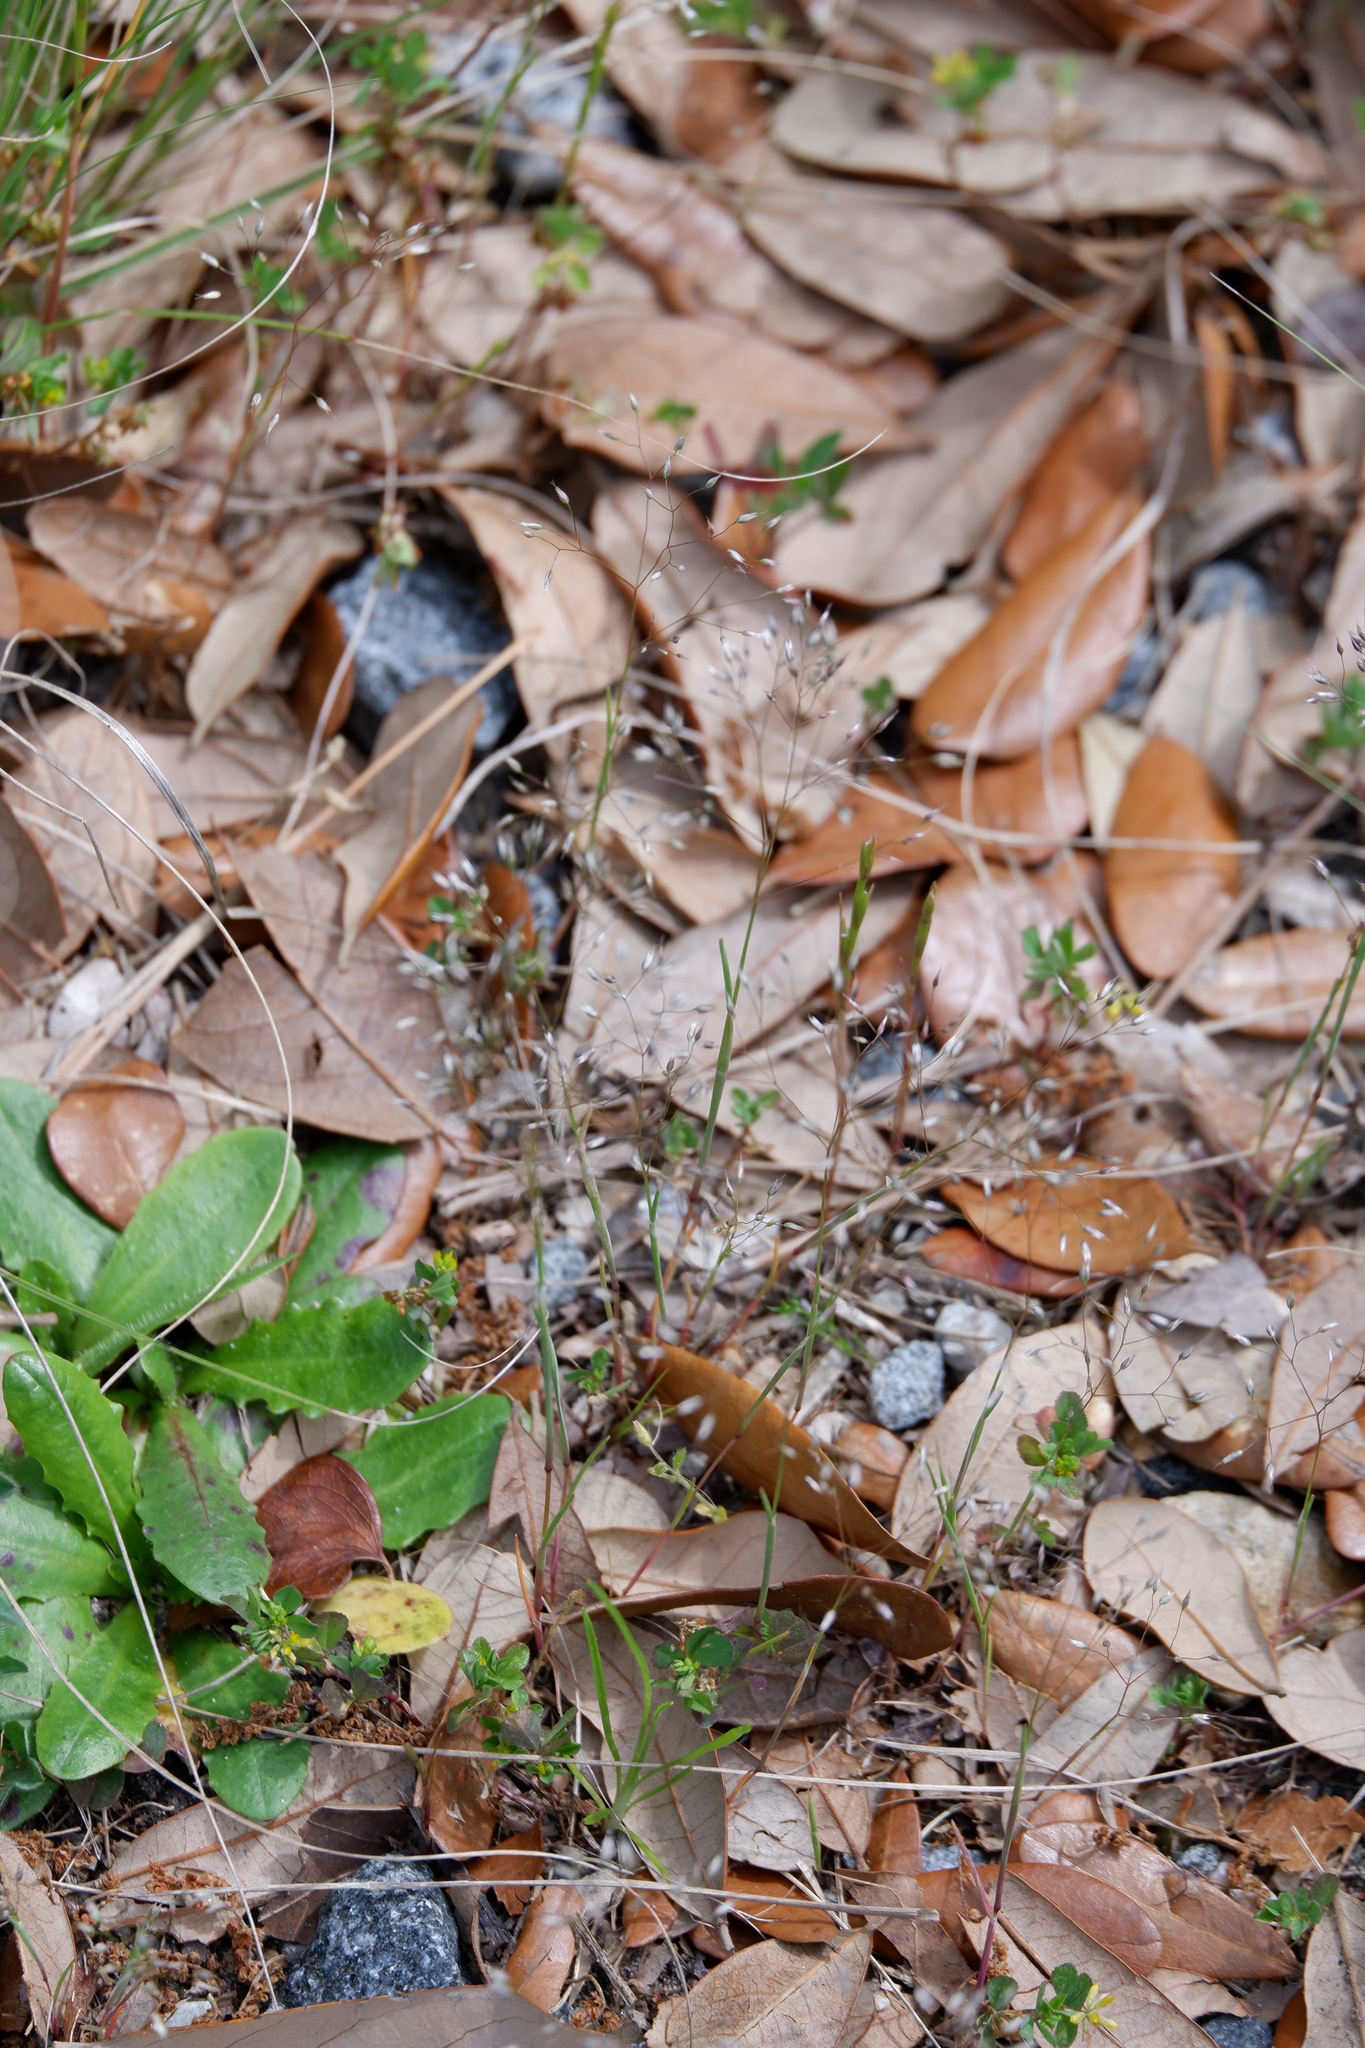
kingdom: Plantae
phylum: Tracheophyta
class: Liliopsida
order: Poales
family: Poaceae
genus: Aira
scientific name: Aira caryophyllea
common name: Silver hairgrass
